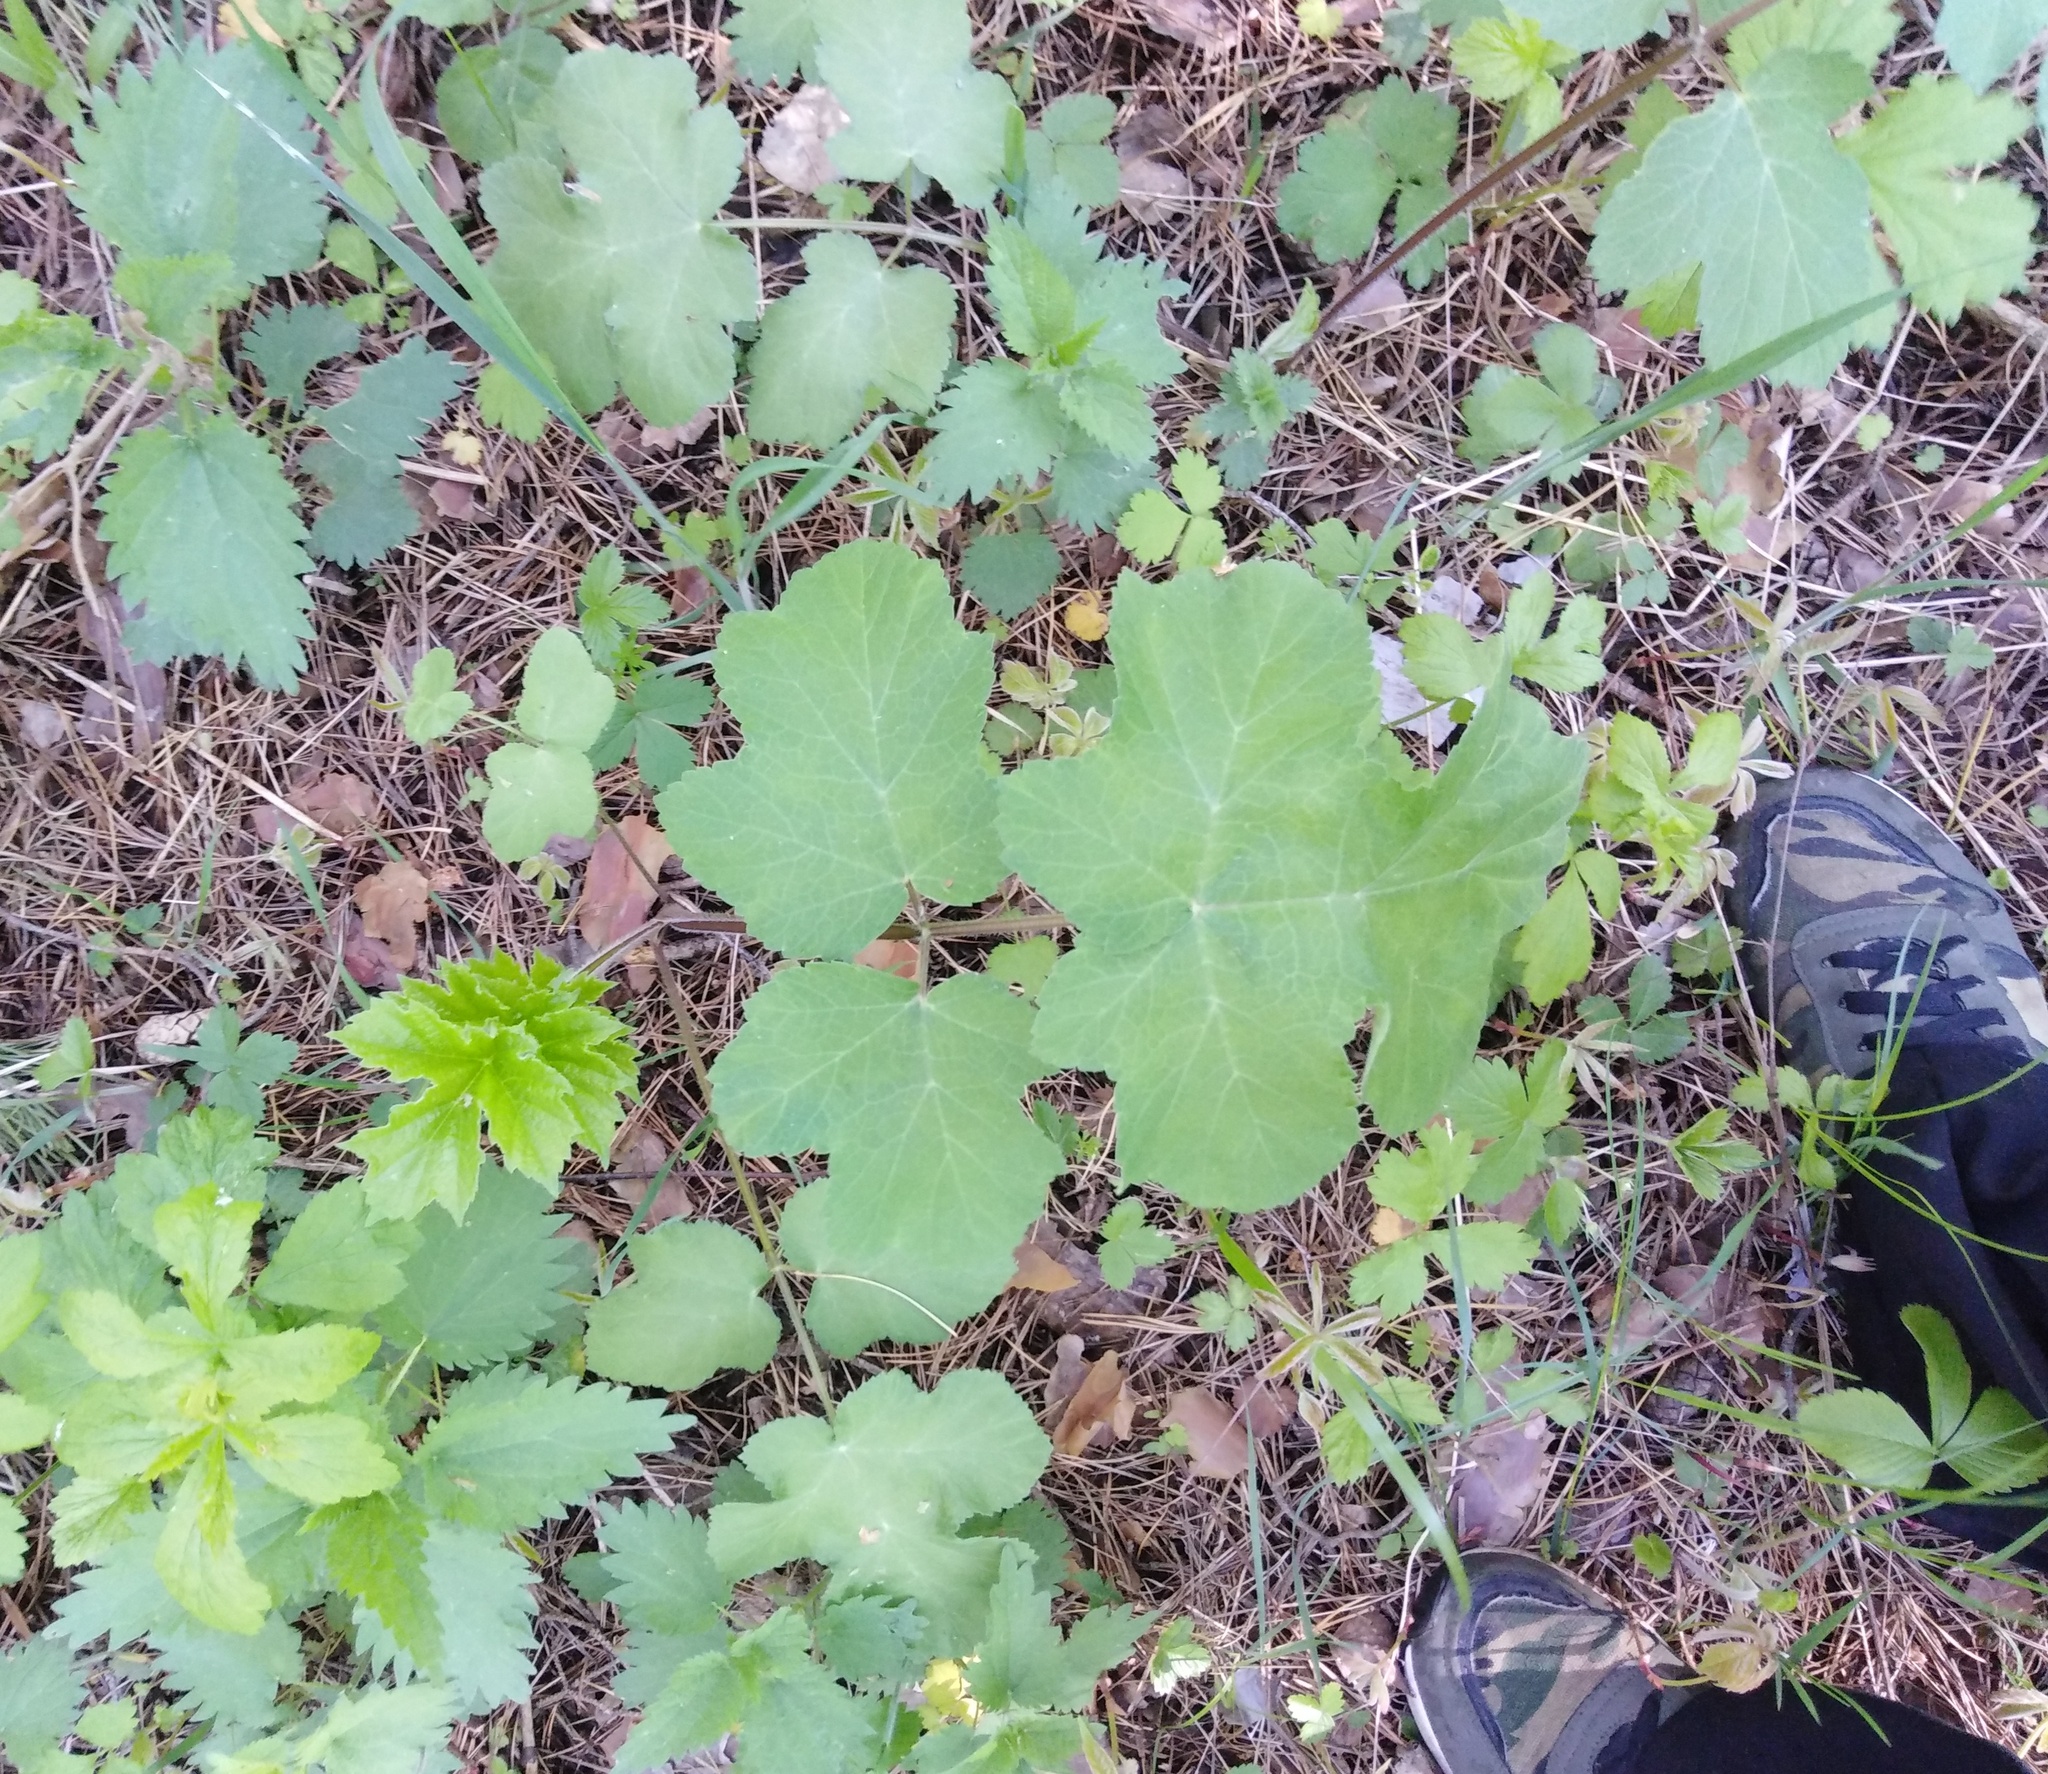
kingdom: Plantae
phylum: Tracheophyta
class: Magnoliopsida
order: Apiales
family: Apiaceae
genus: Heracleum
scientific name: Heracleum sphondylium
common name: Hogweed
